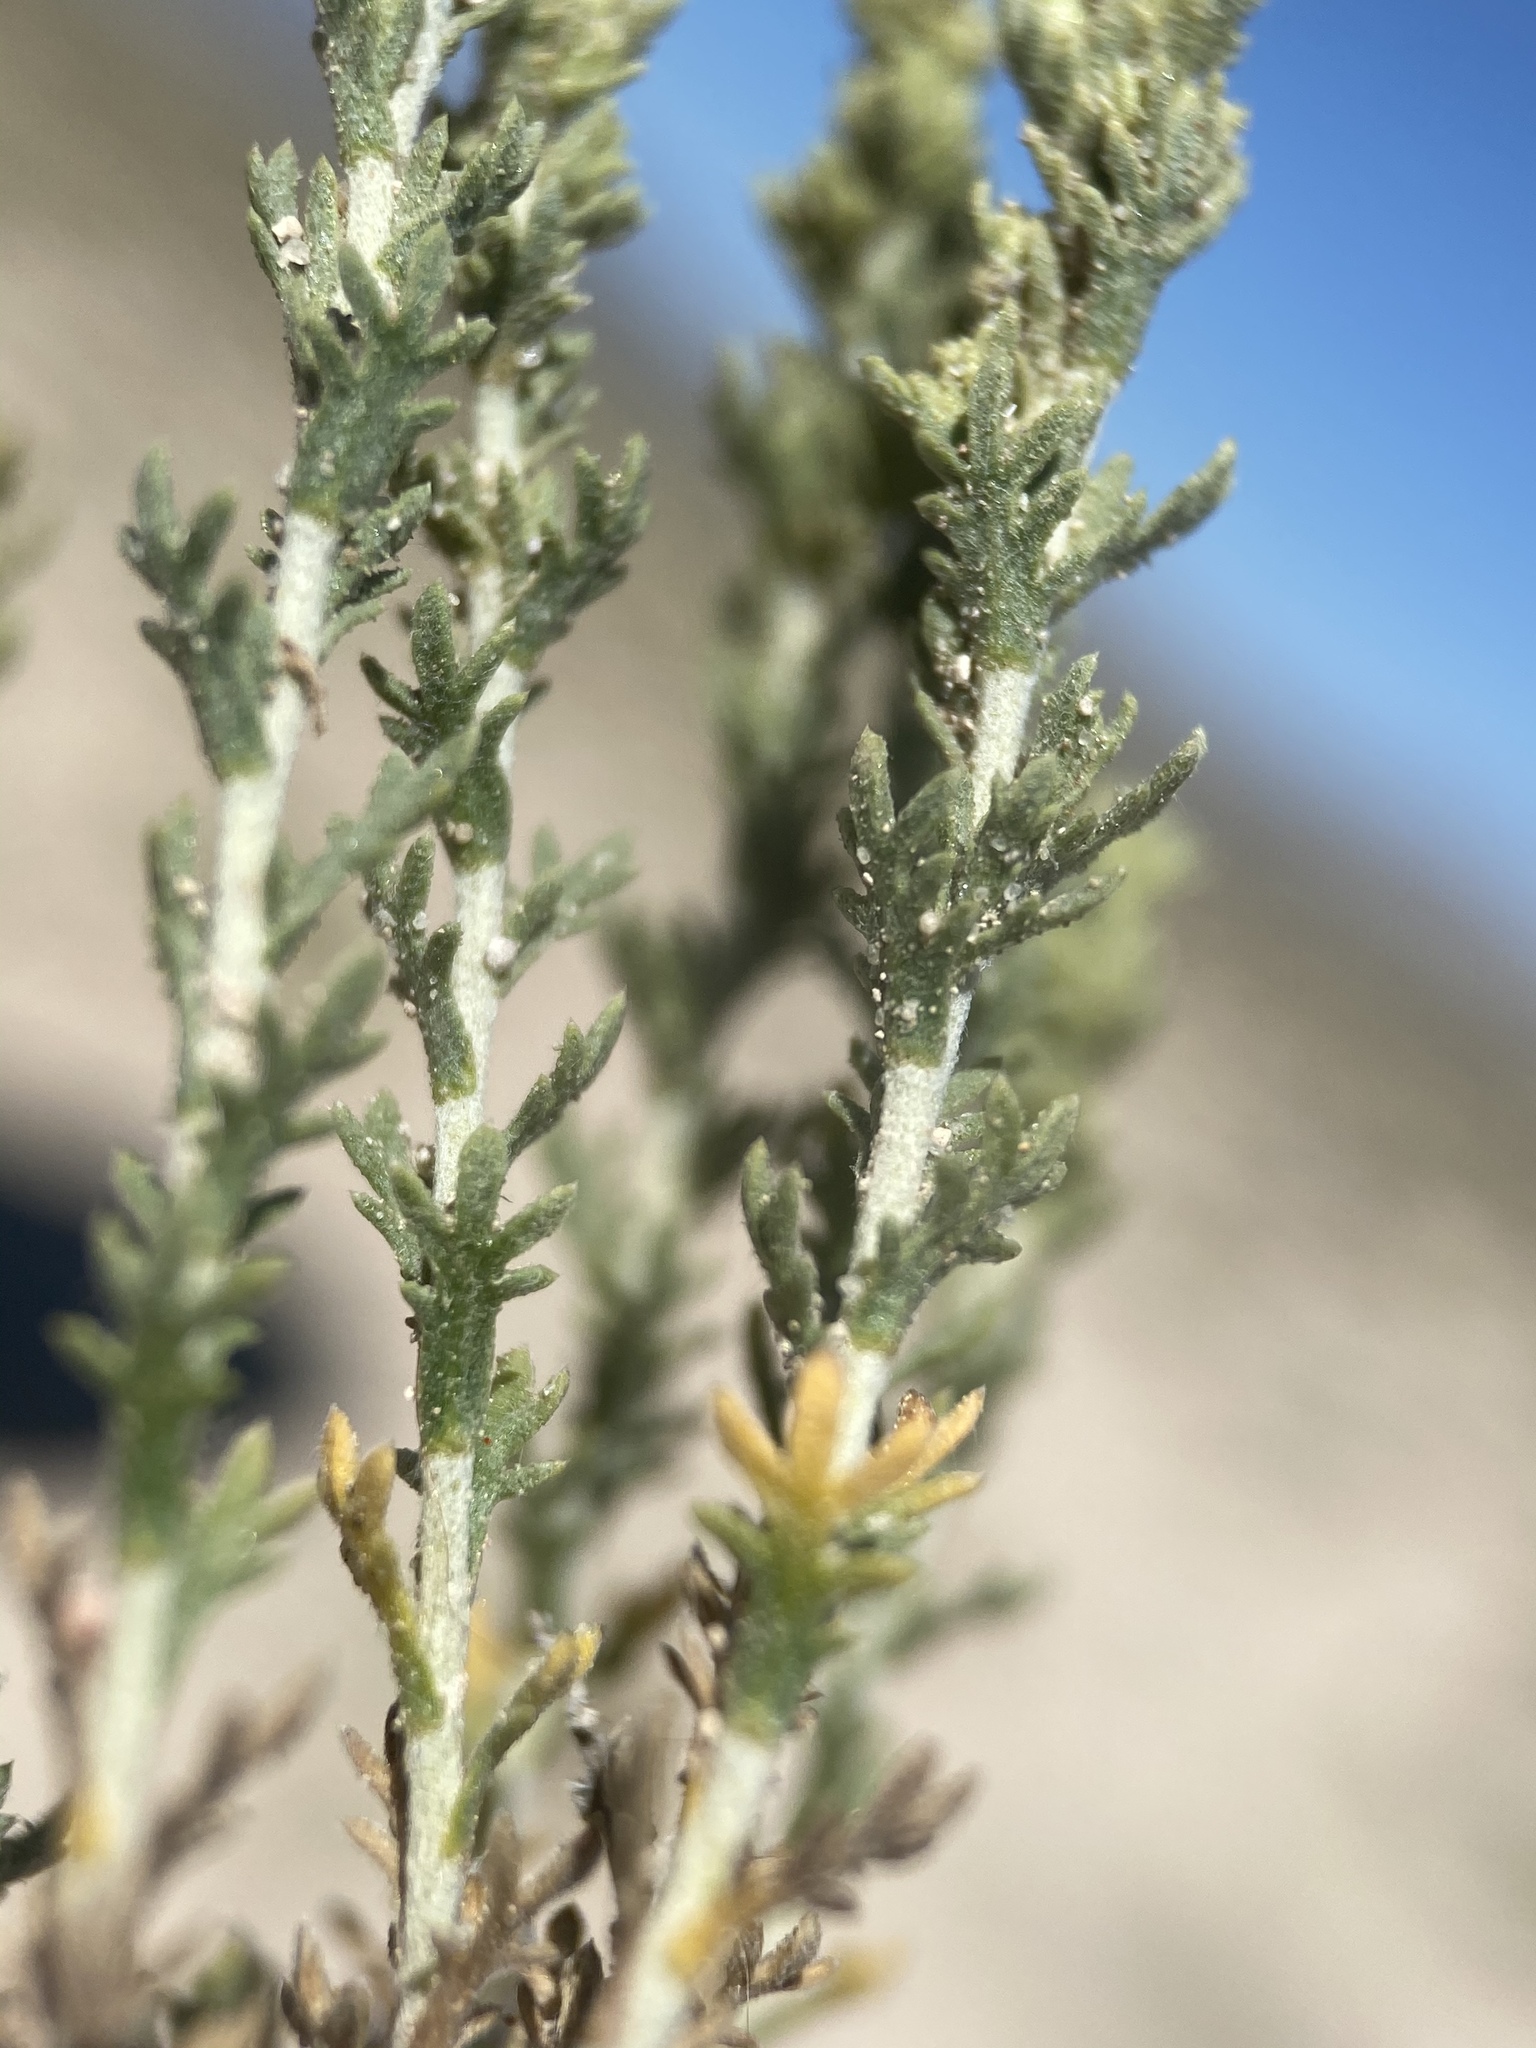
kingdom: Plantae
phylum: Tracheophyta
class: Magnoliopsida
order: Asterales
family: Asteraceae
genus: Artemisia
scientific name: Artemisia pygmaea
